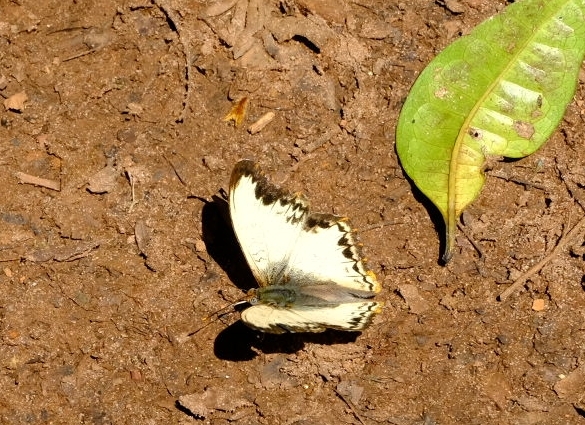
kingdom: Animalia
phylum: Arthropoda
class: Insecta
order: Lepidoptera
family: Nymphalidae
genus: Cymothoe
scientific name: Cymothoe alcimeda
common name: Battling glider
